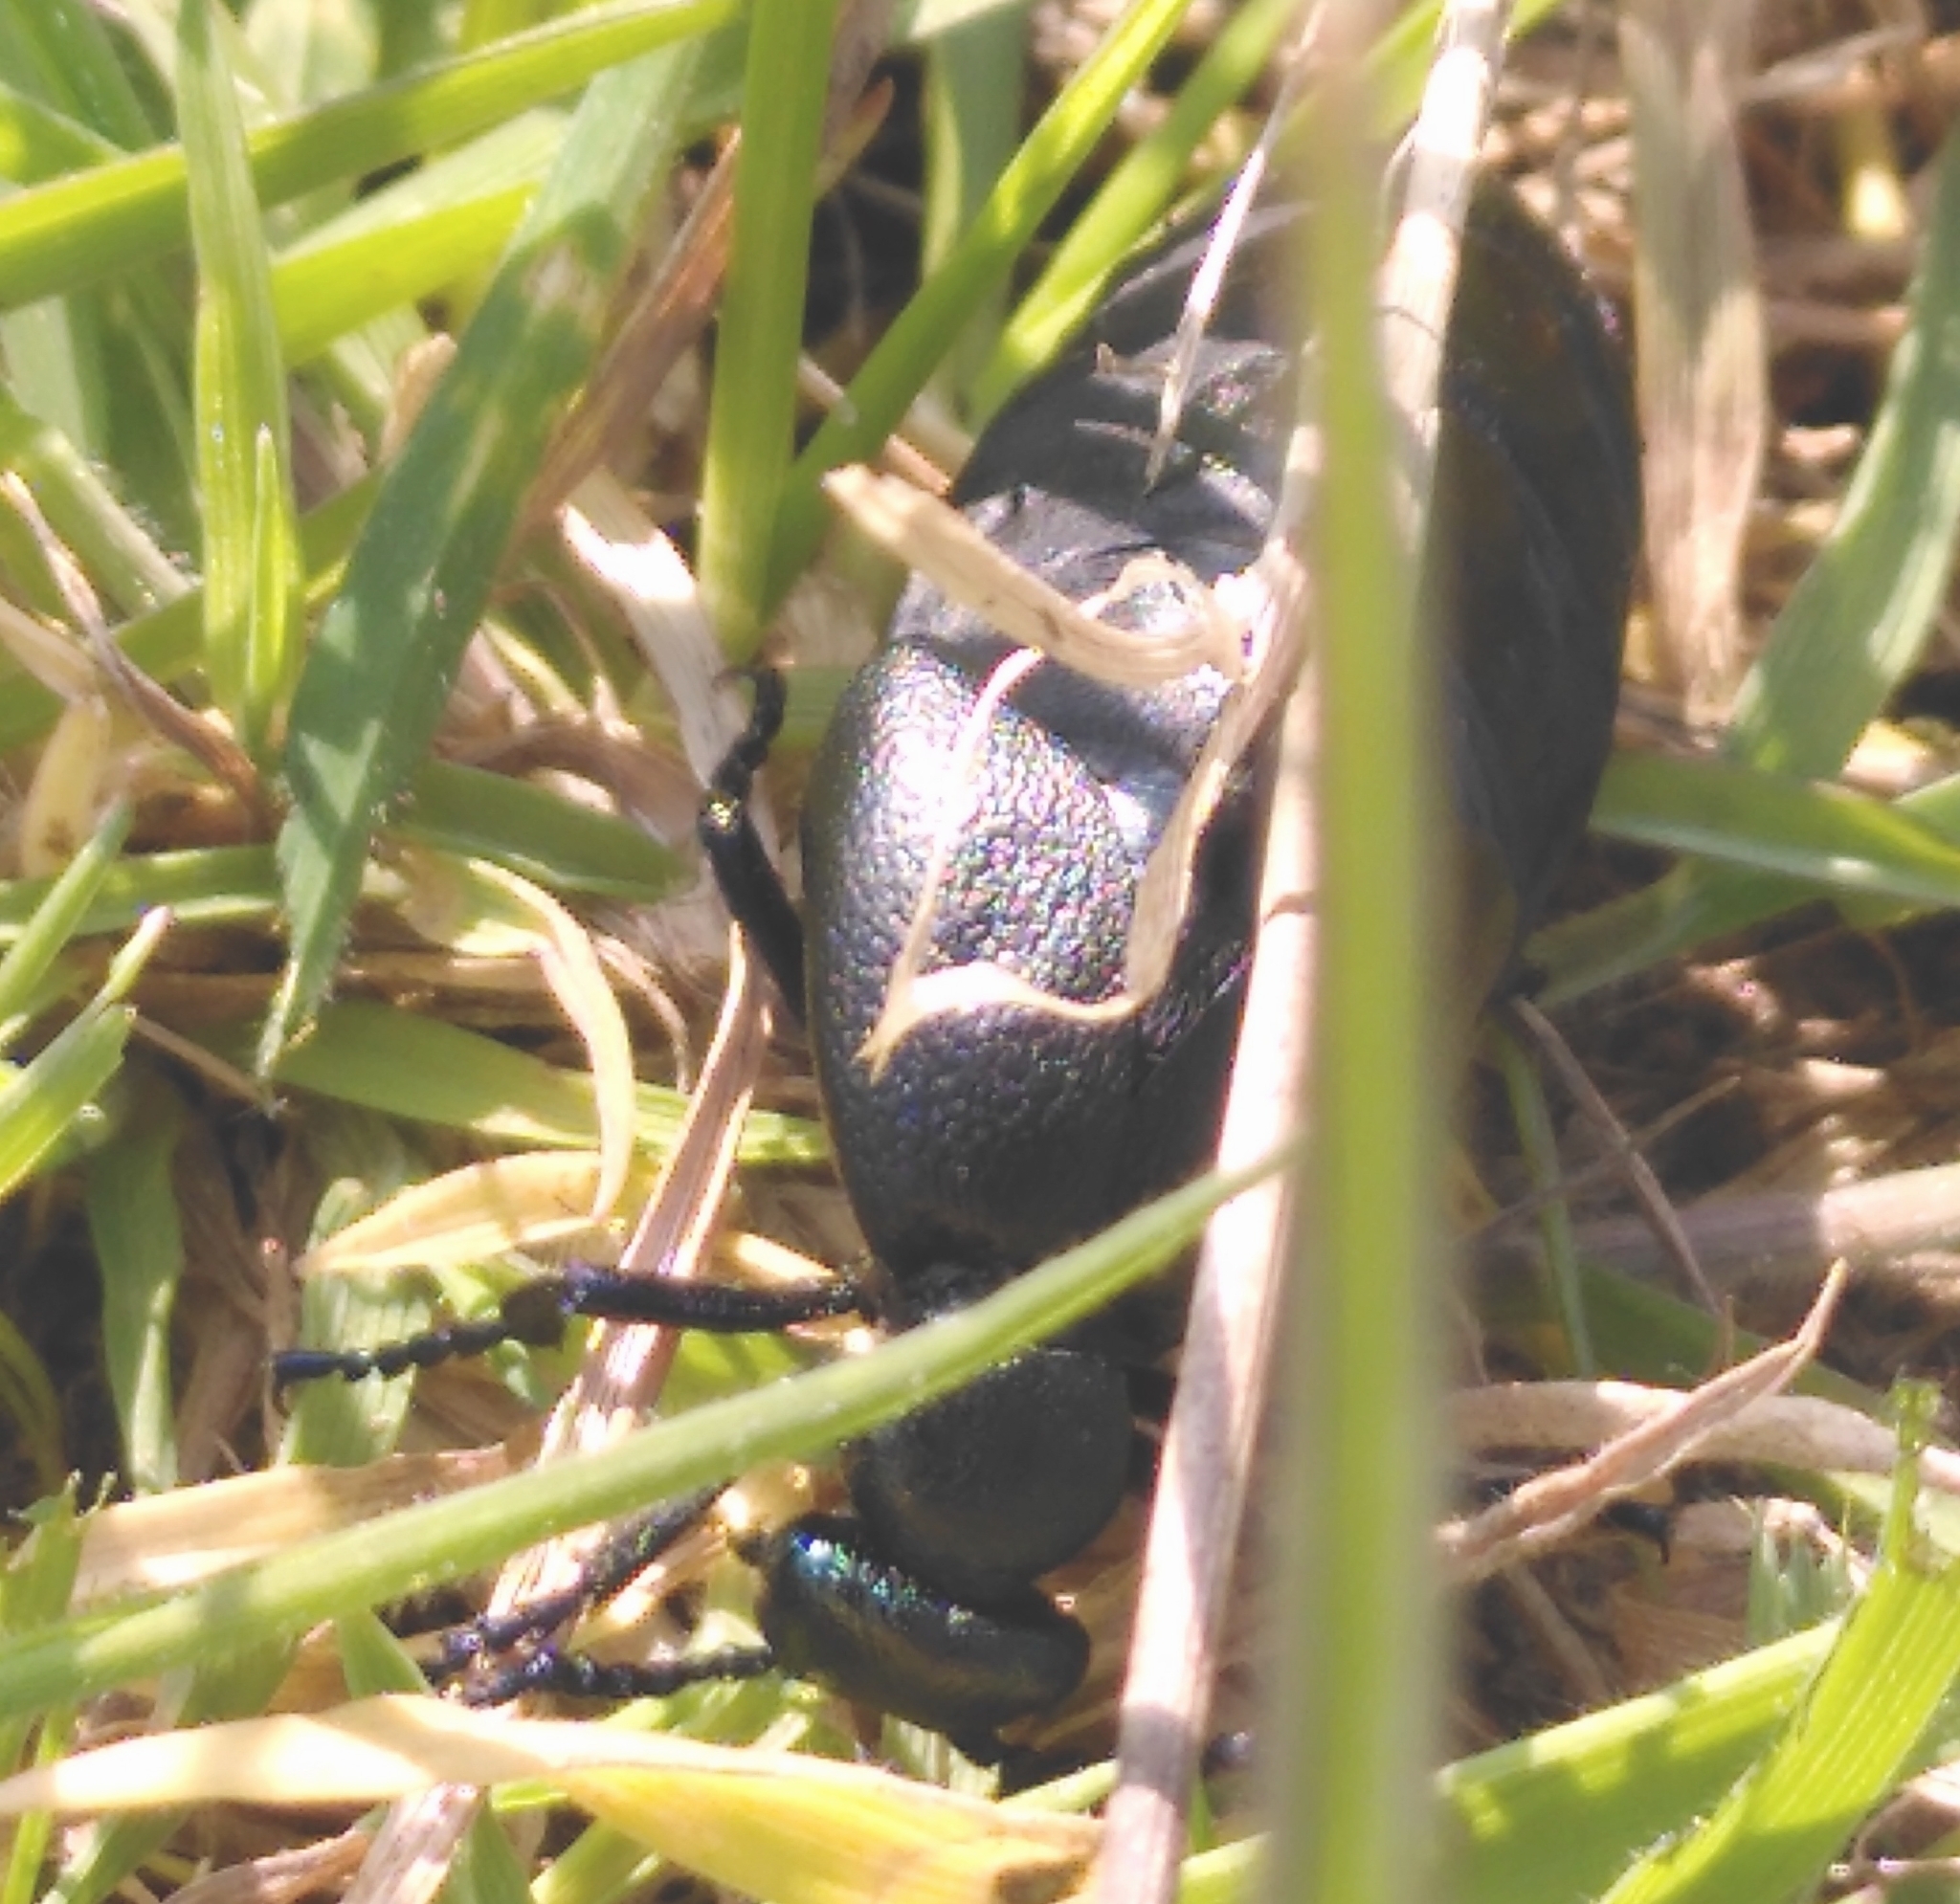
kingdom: Animalia
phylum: Arthropoda
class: Insecta
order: Coleoptera
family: Meloidae
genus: Meloe
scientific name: Meloe proscarabaeus
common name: Black oil-beetle
